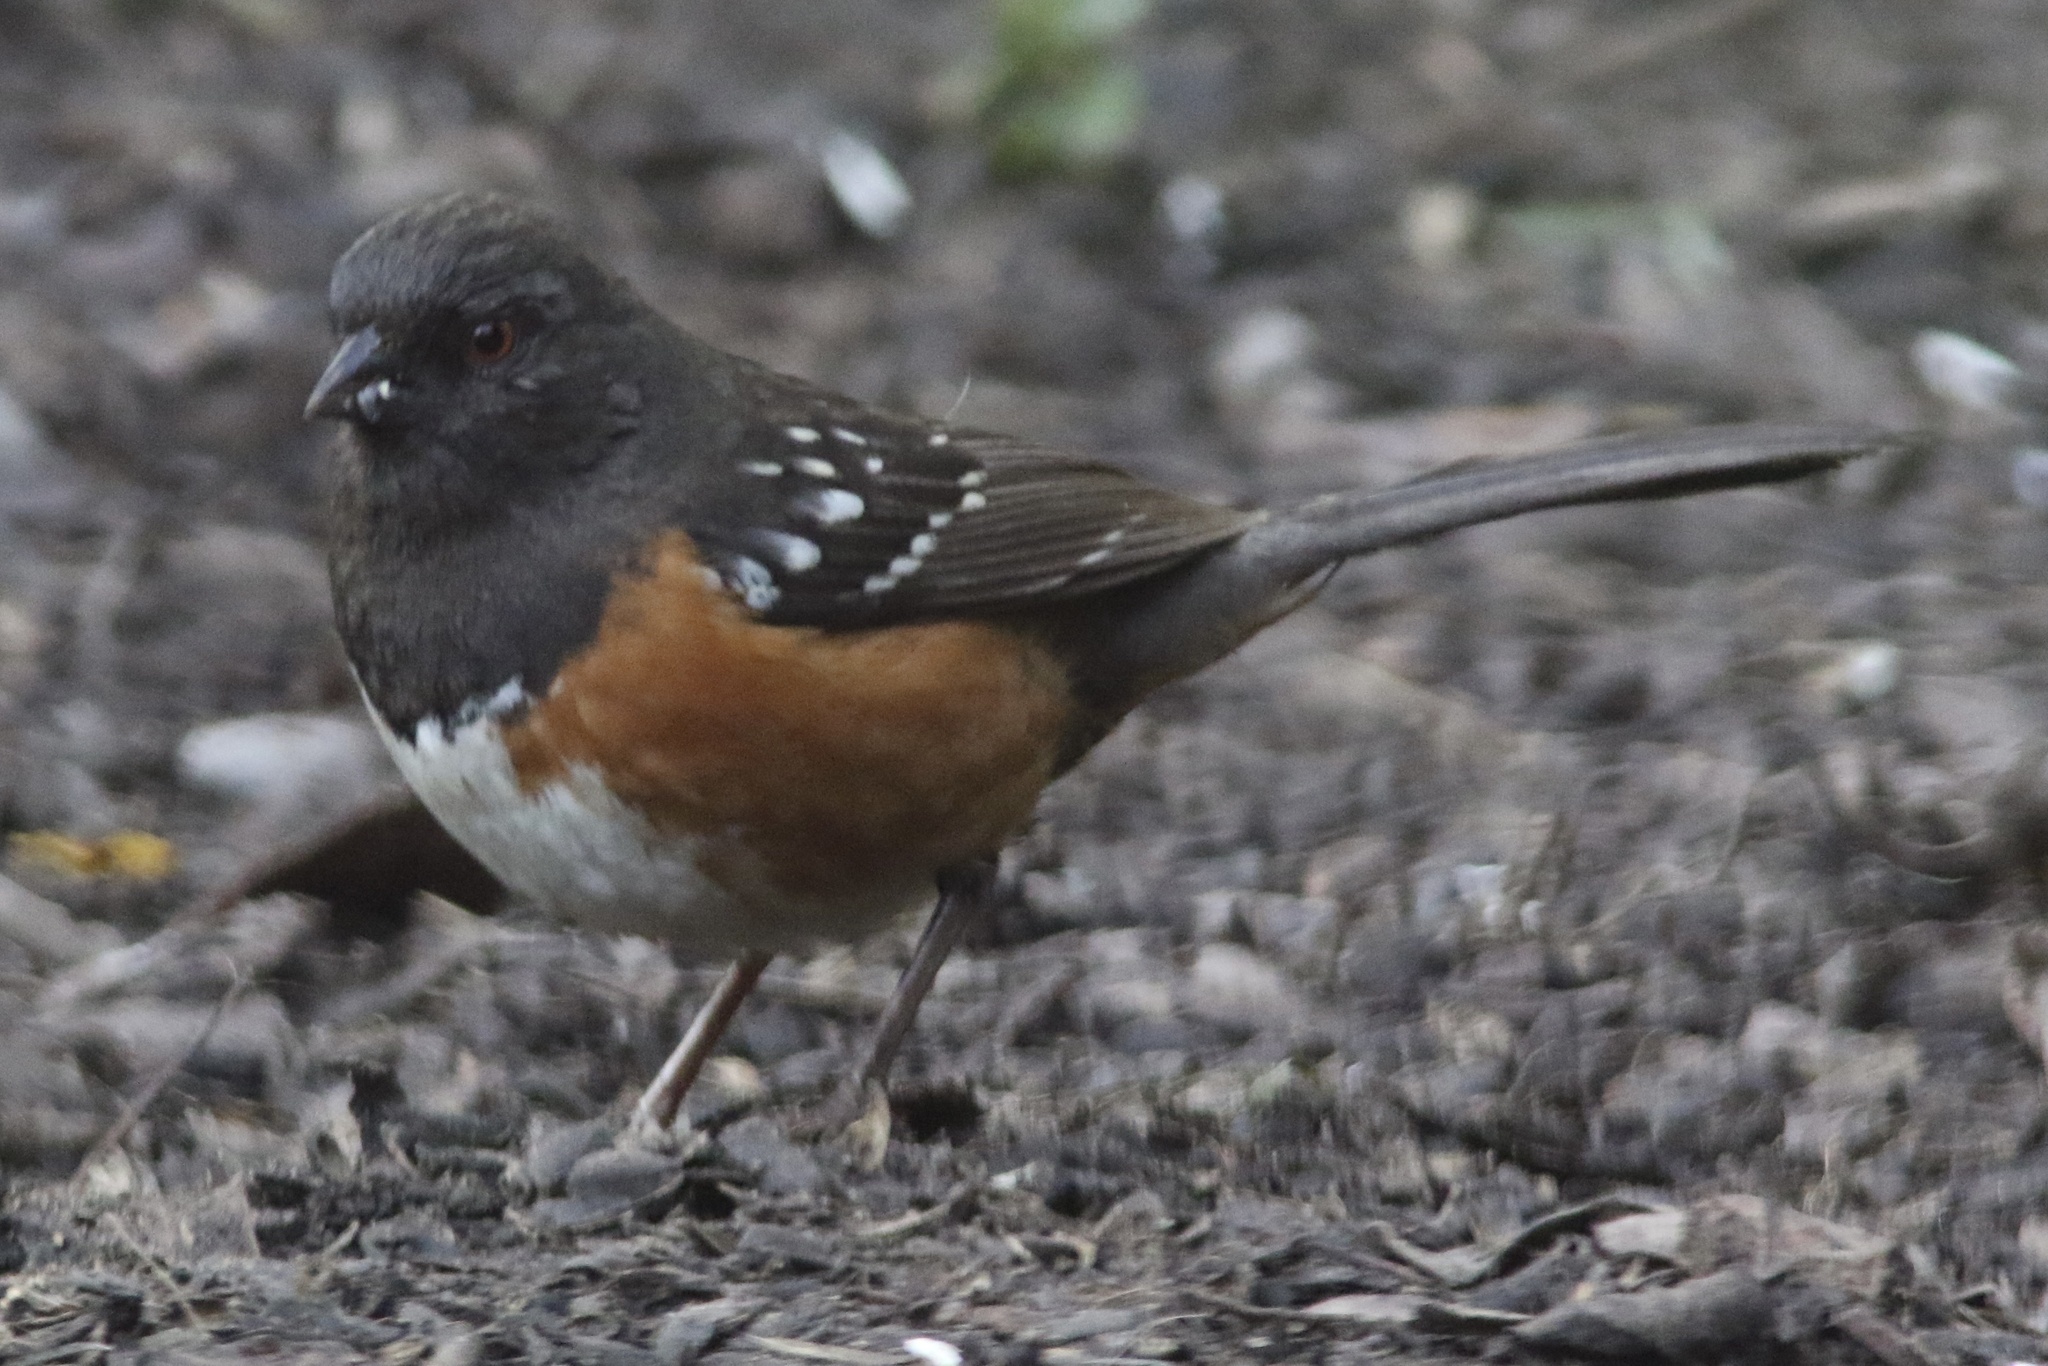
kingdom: Animalia
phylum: Chordata
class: Aves
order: Passeriformes
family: Passerellidae
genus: Pipilo
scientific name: Pipilo maculatus
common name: Spotted towhee
